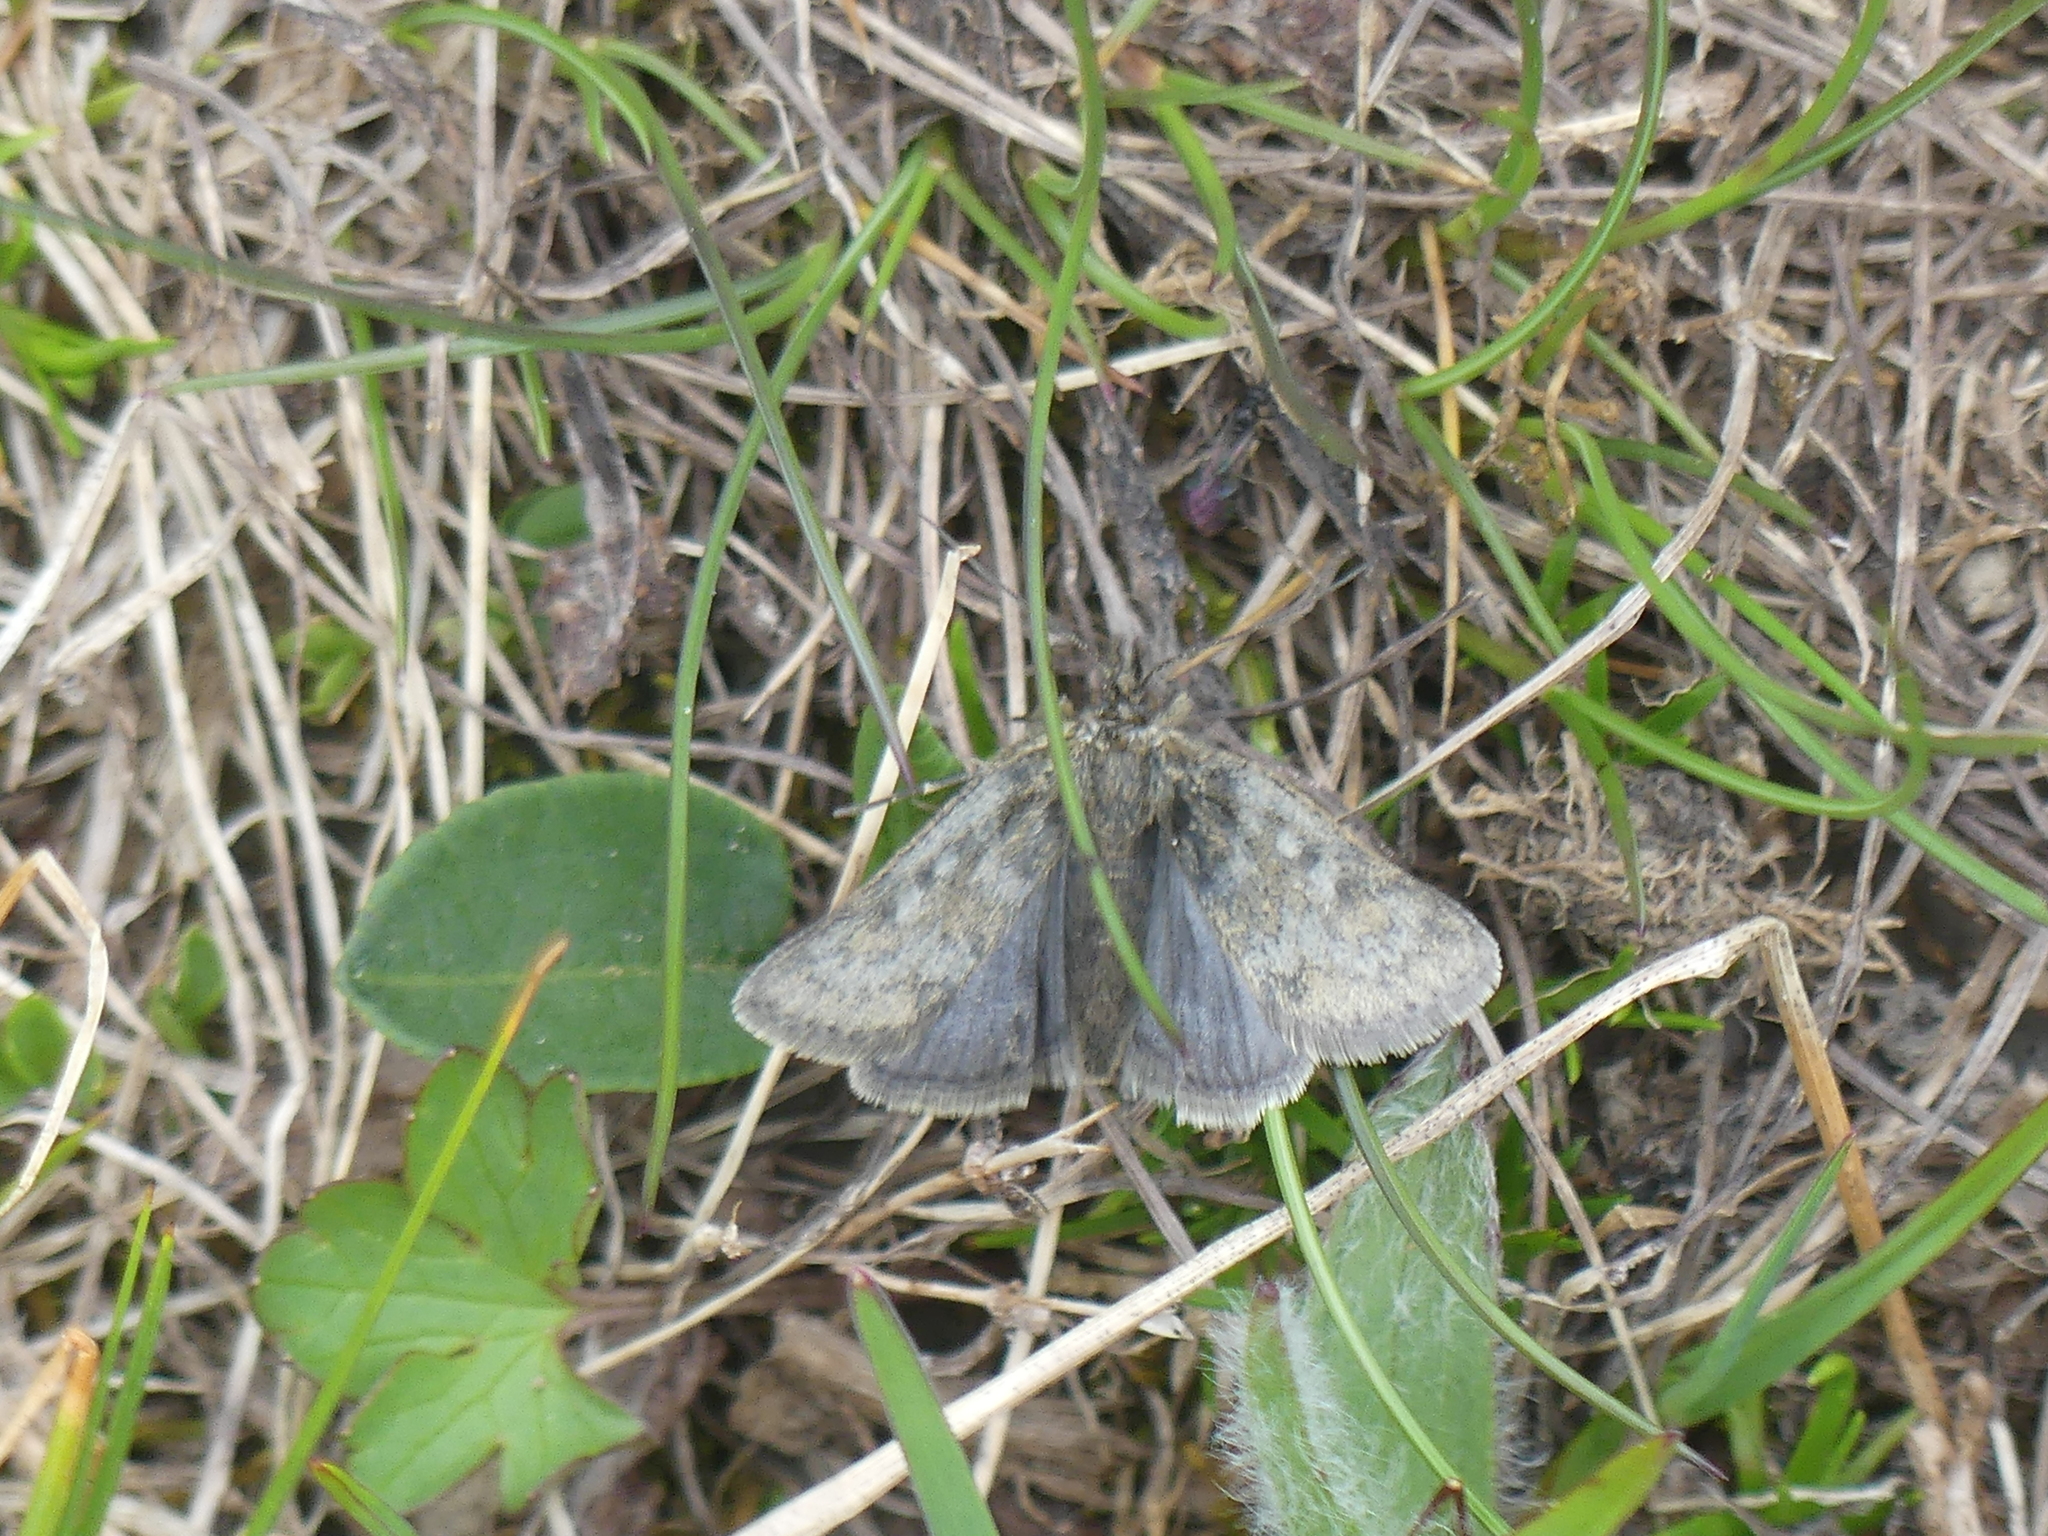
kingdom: Animalia
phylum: Arthropoda
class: Insecta
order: Lepidoptera
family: Crambidae
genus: Metaxmeste
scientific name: Metaxmeste phrygialis
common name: Black mountain pearl
